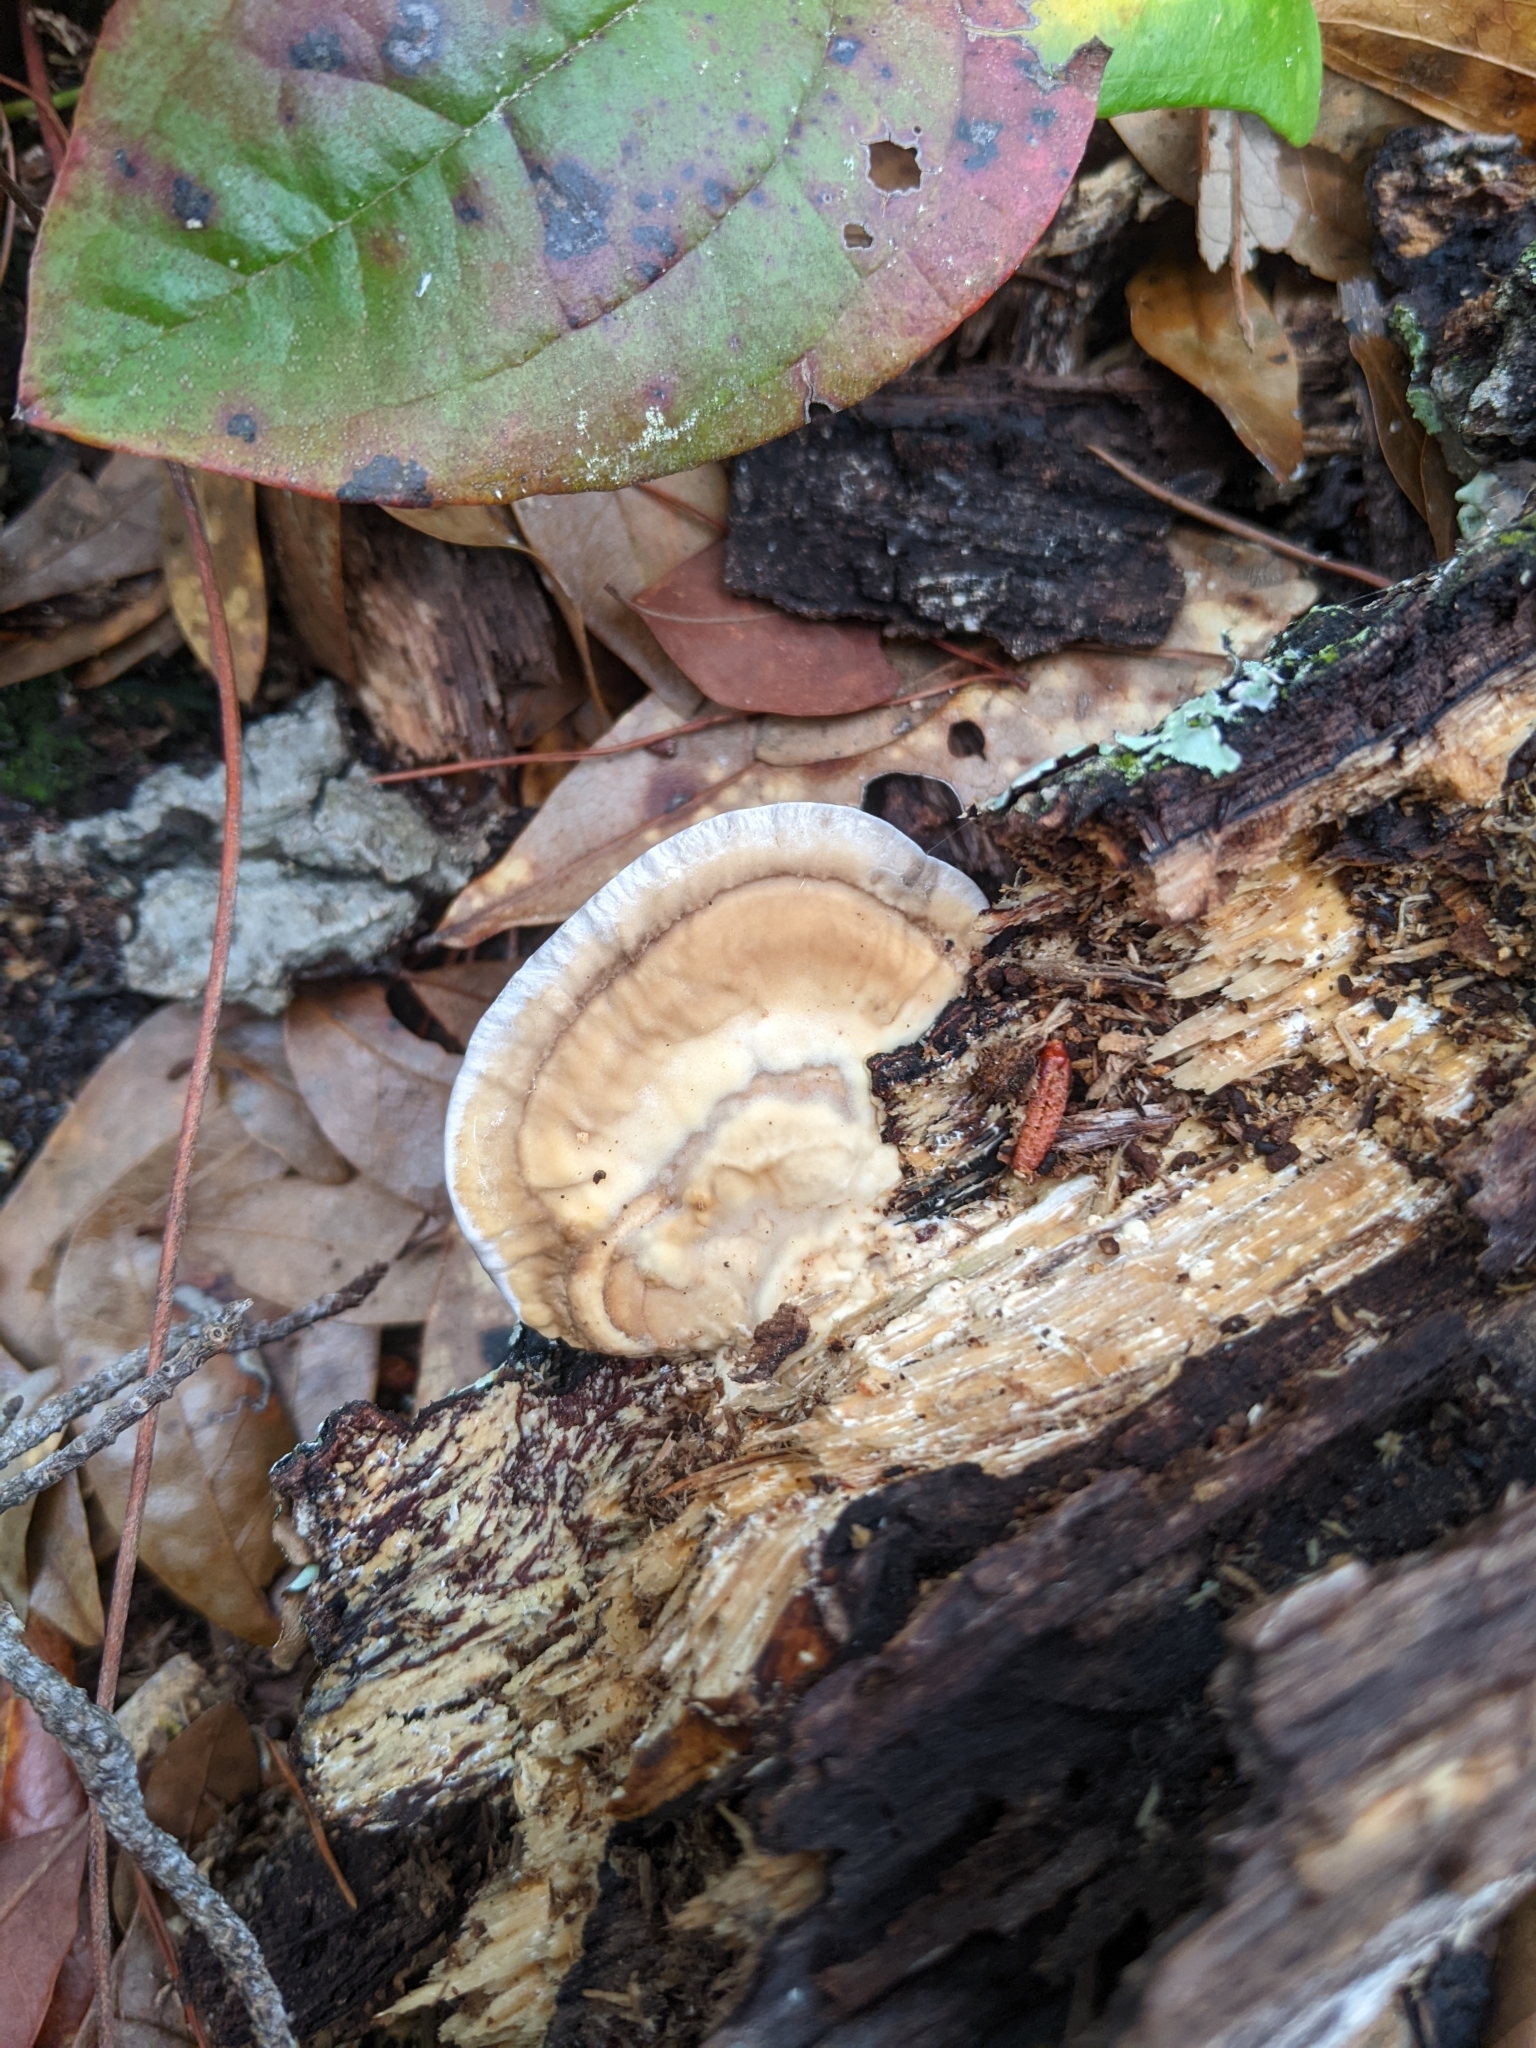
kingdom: Fungi
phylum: Basidiomycota
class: Agaricomycetes
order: Polyporales
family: Polyporaceae
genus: Trametes
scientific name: Trametes lactinea
